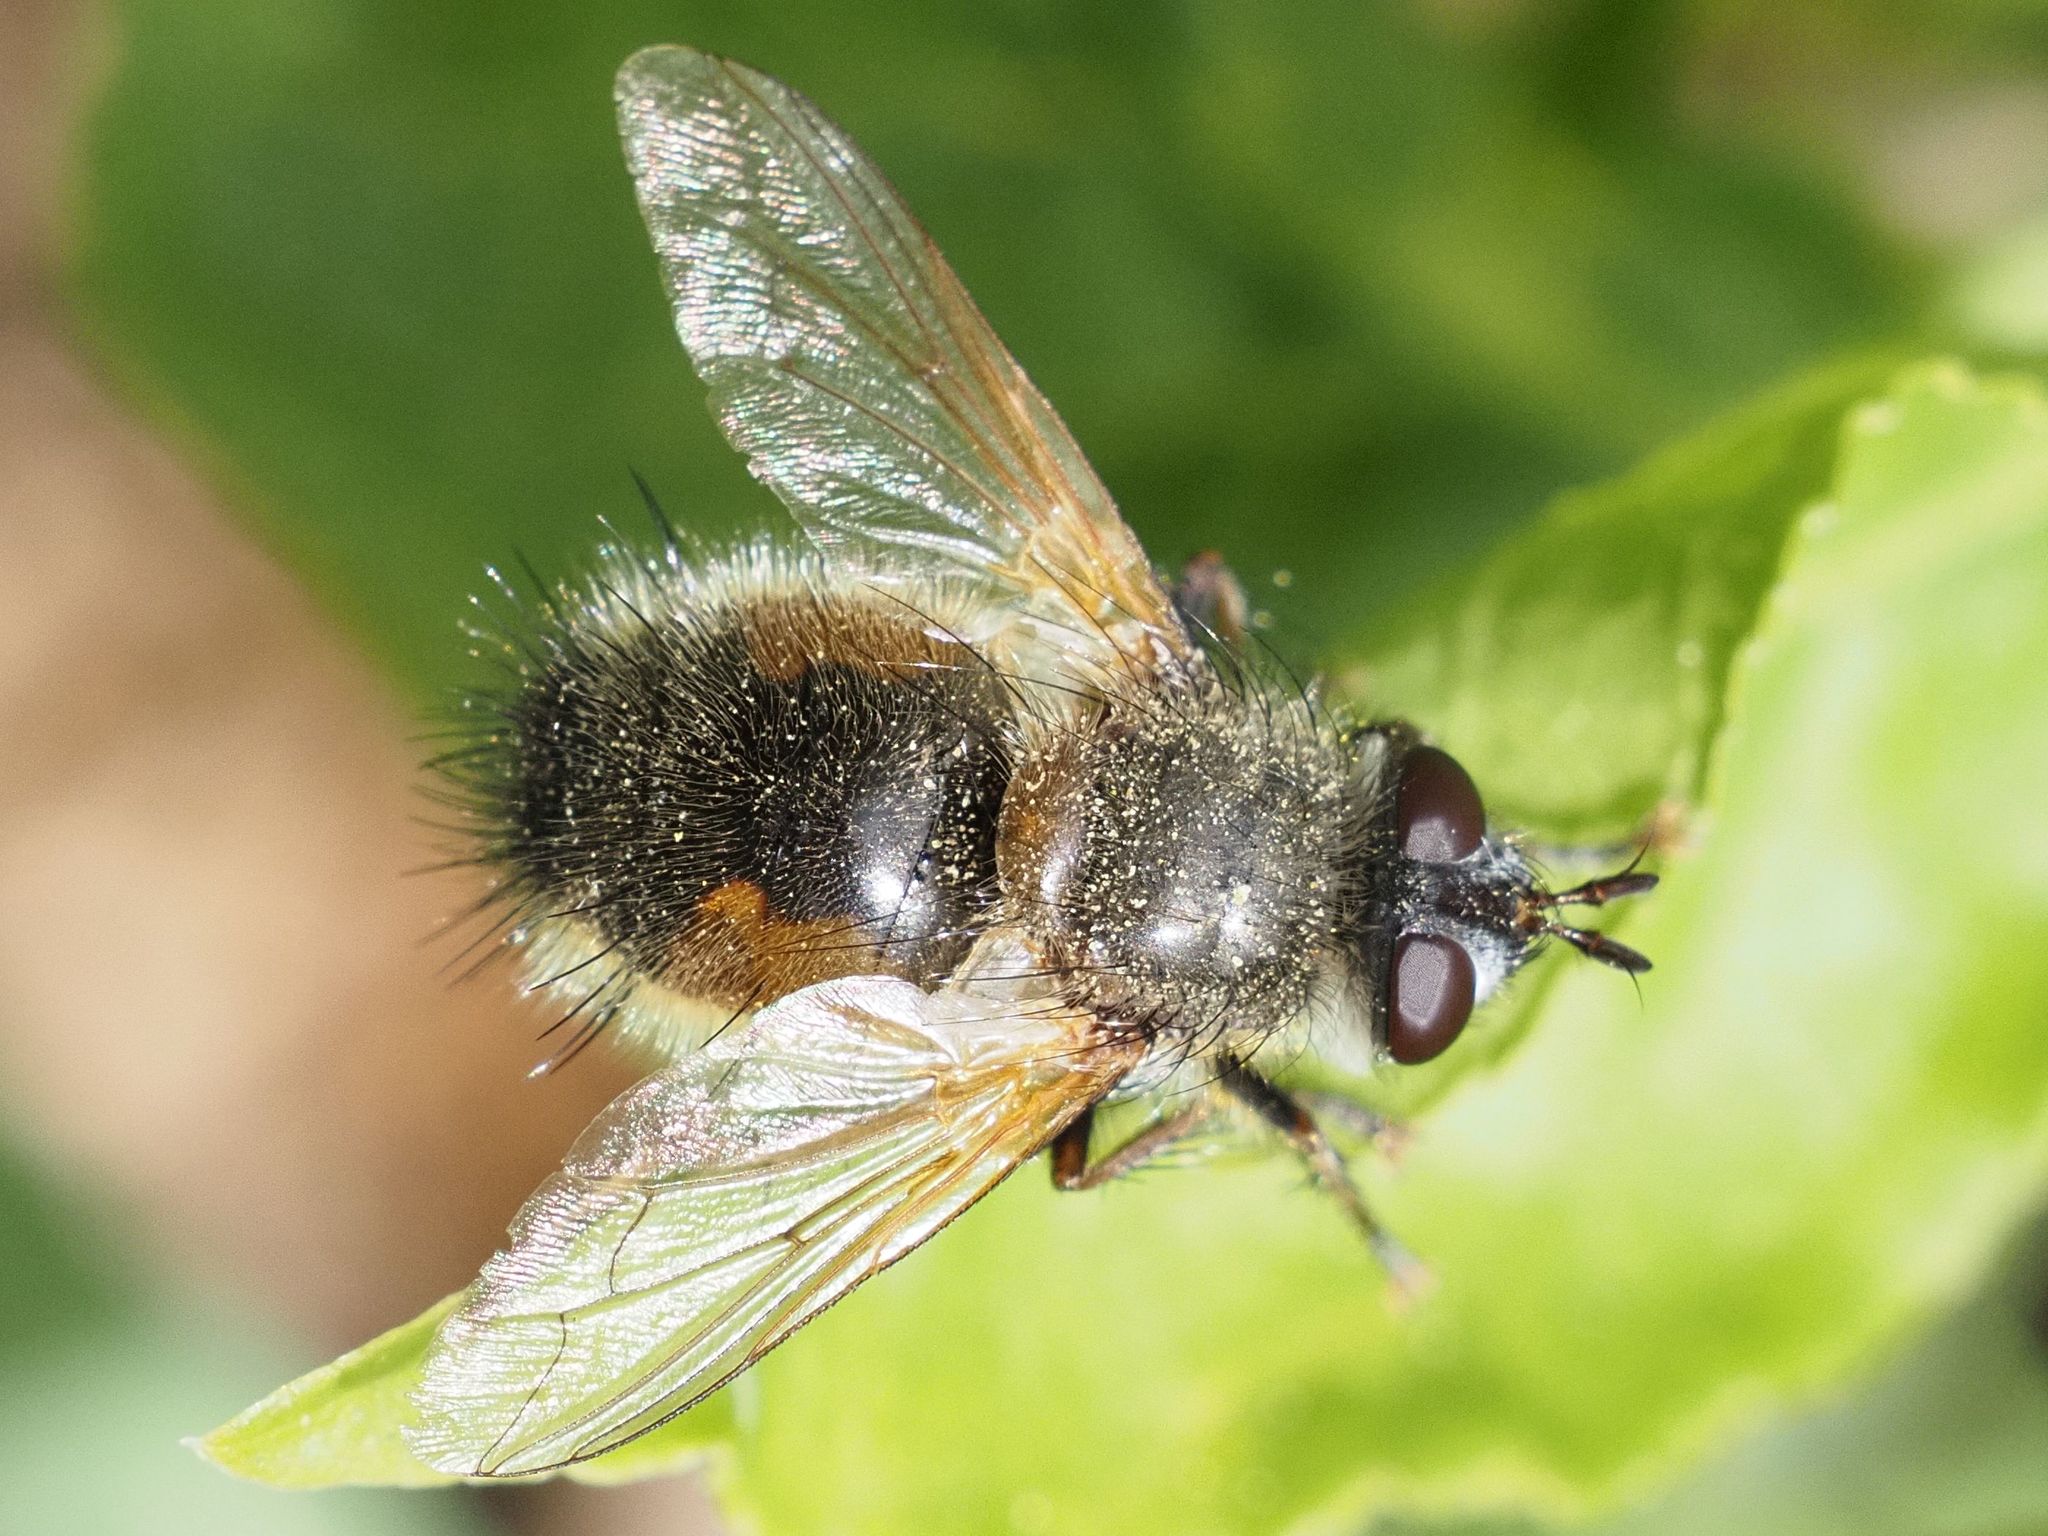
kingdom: Animalia
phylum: Arthropoda
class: Insecta
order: Diptera
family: Tachinidae
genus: Tachina
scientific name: Tachina lurida
